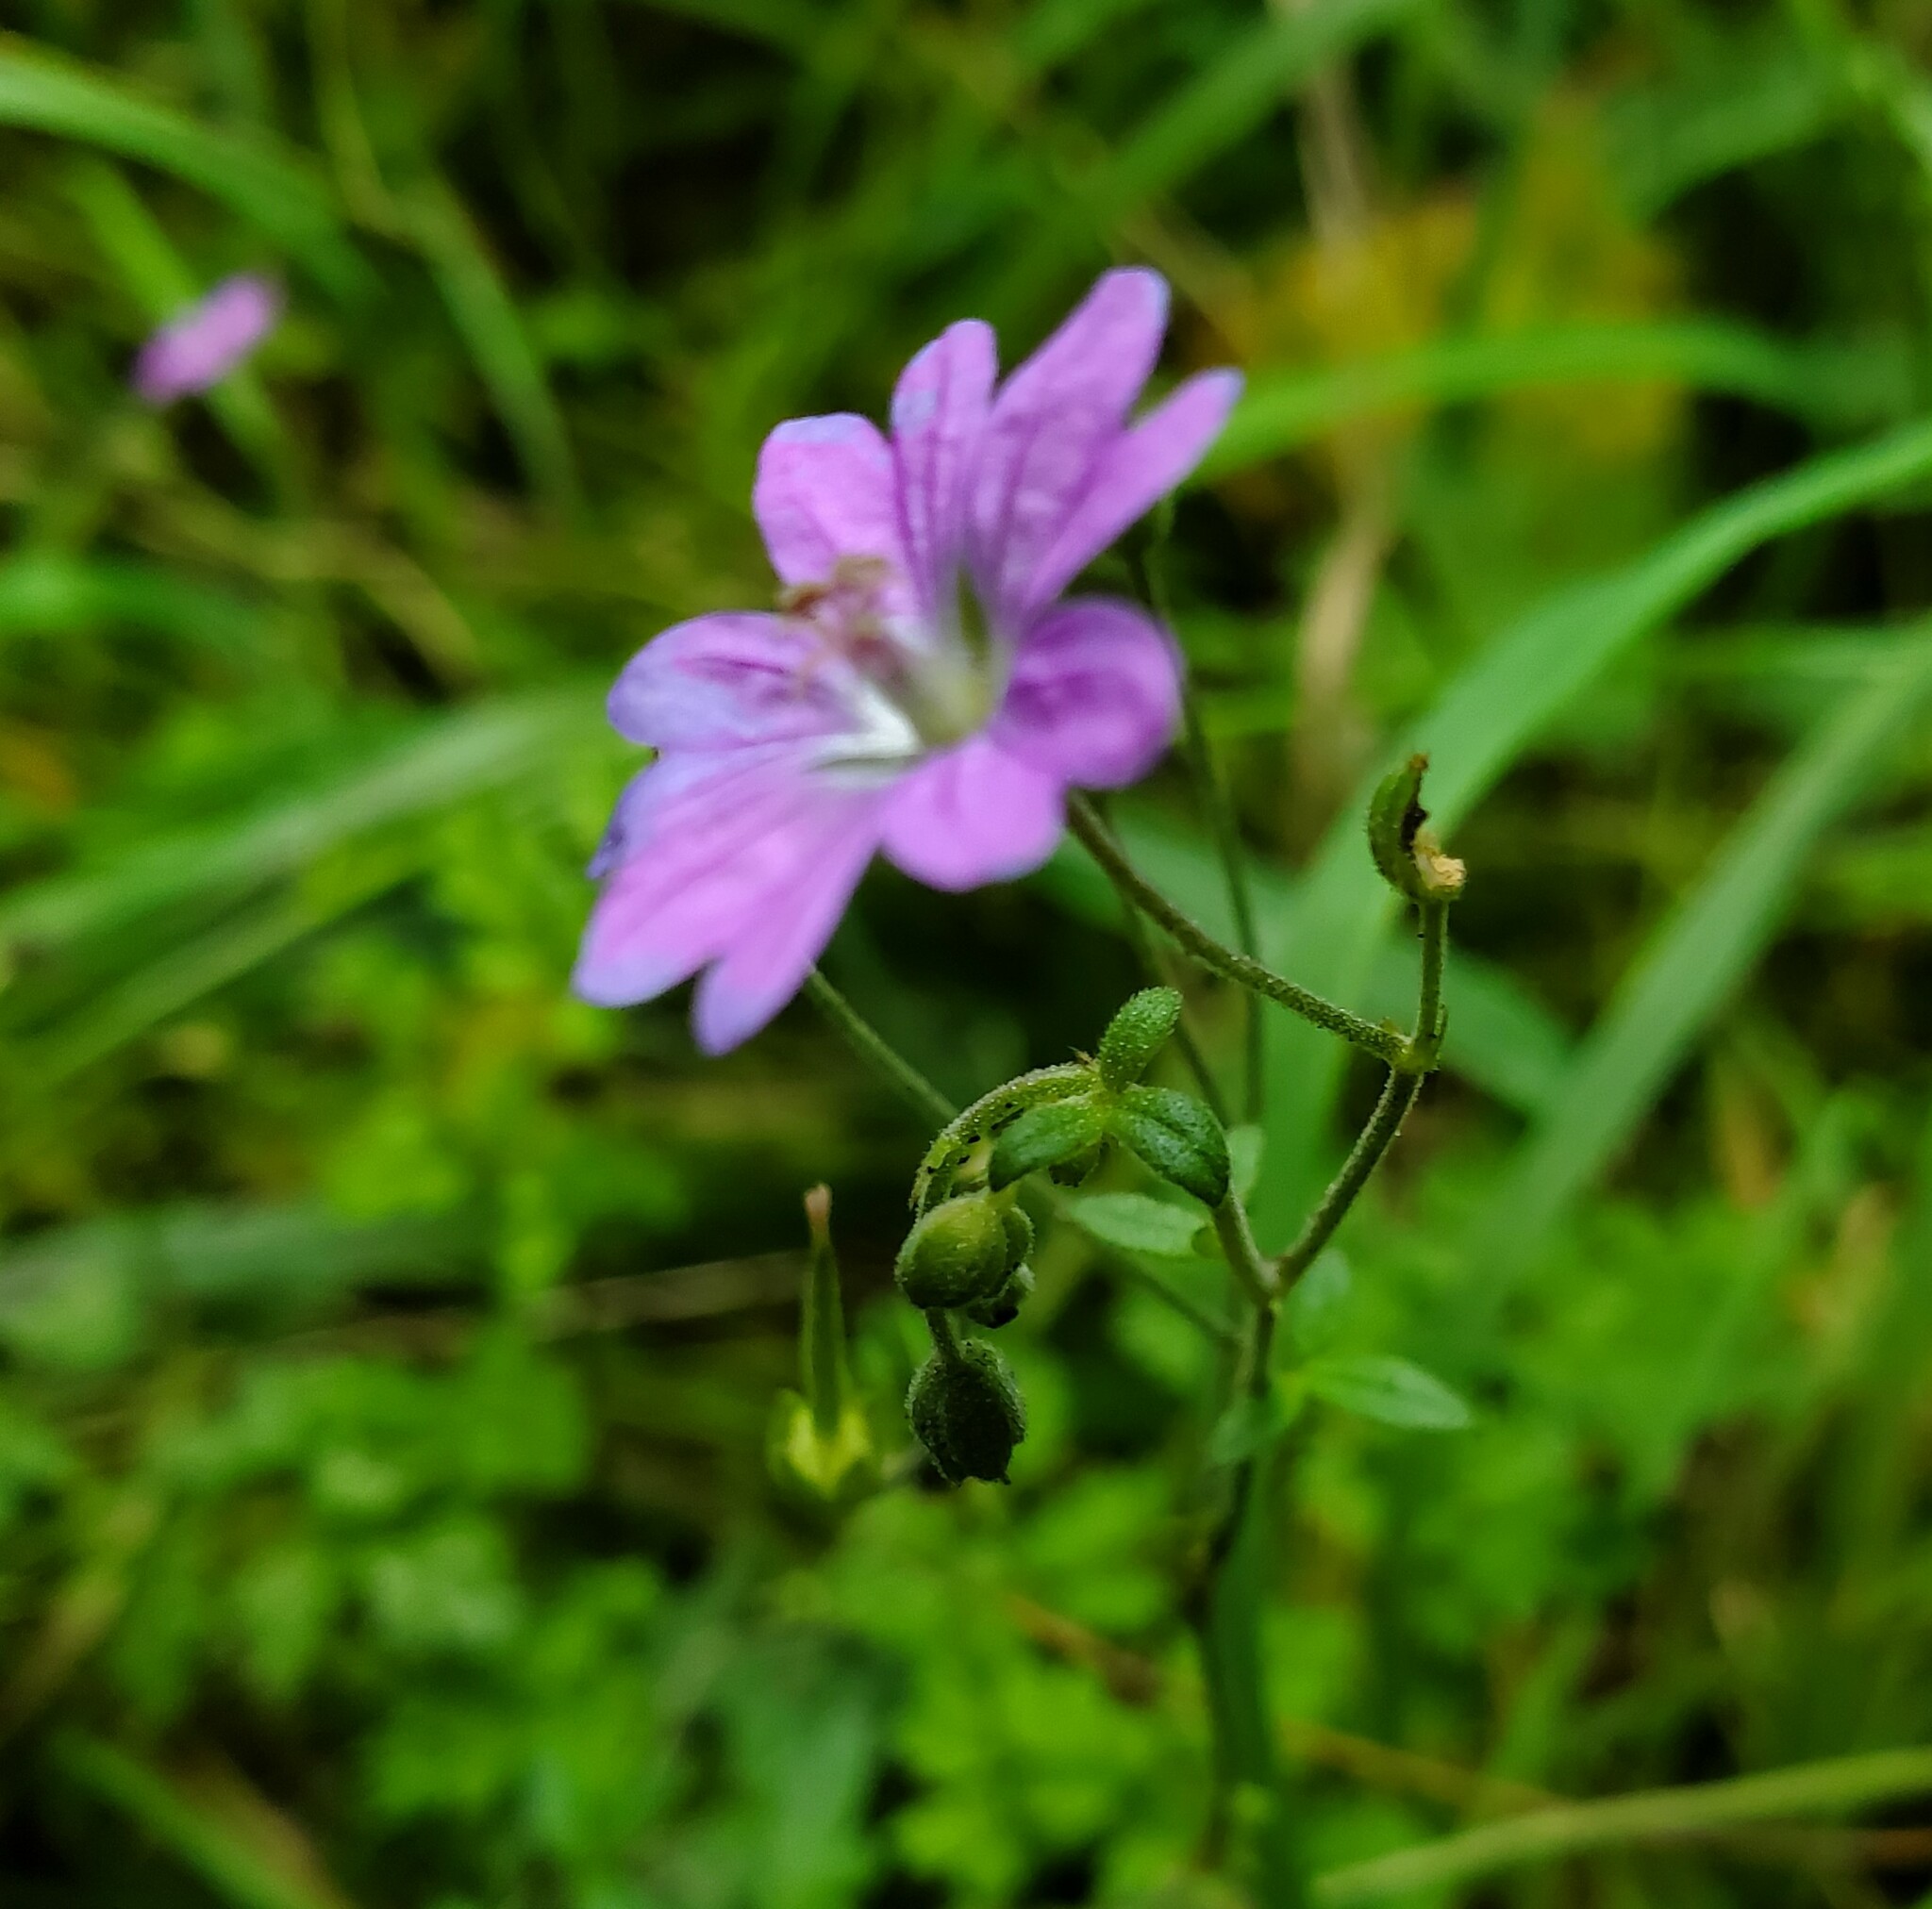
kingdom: Plantae
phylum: Tracheophyta
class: Magnoliopsida
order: Geraniales
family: Geraniaceae
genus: Geranium
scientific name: Geranium pyrenaicum
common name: Hedgerow crane's-bill
